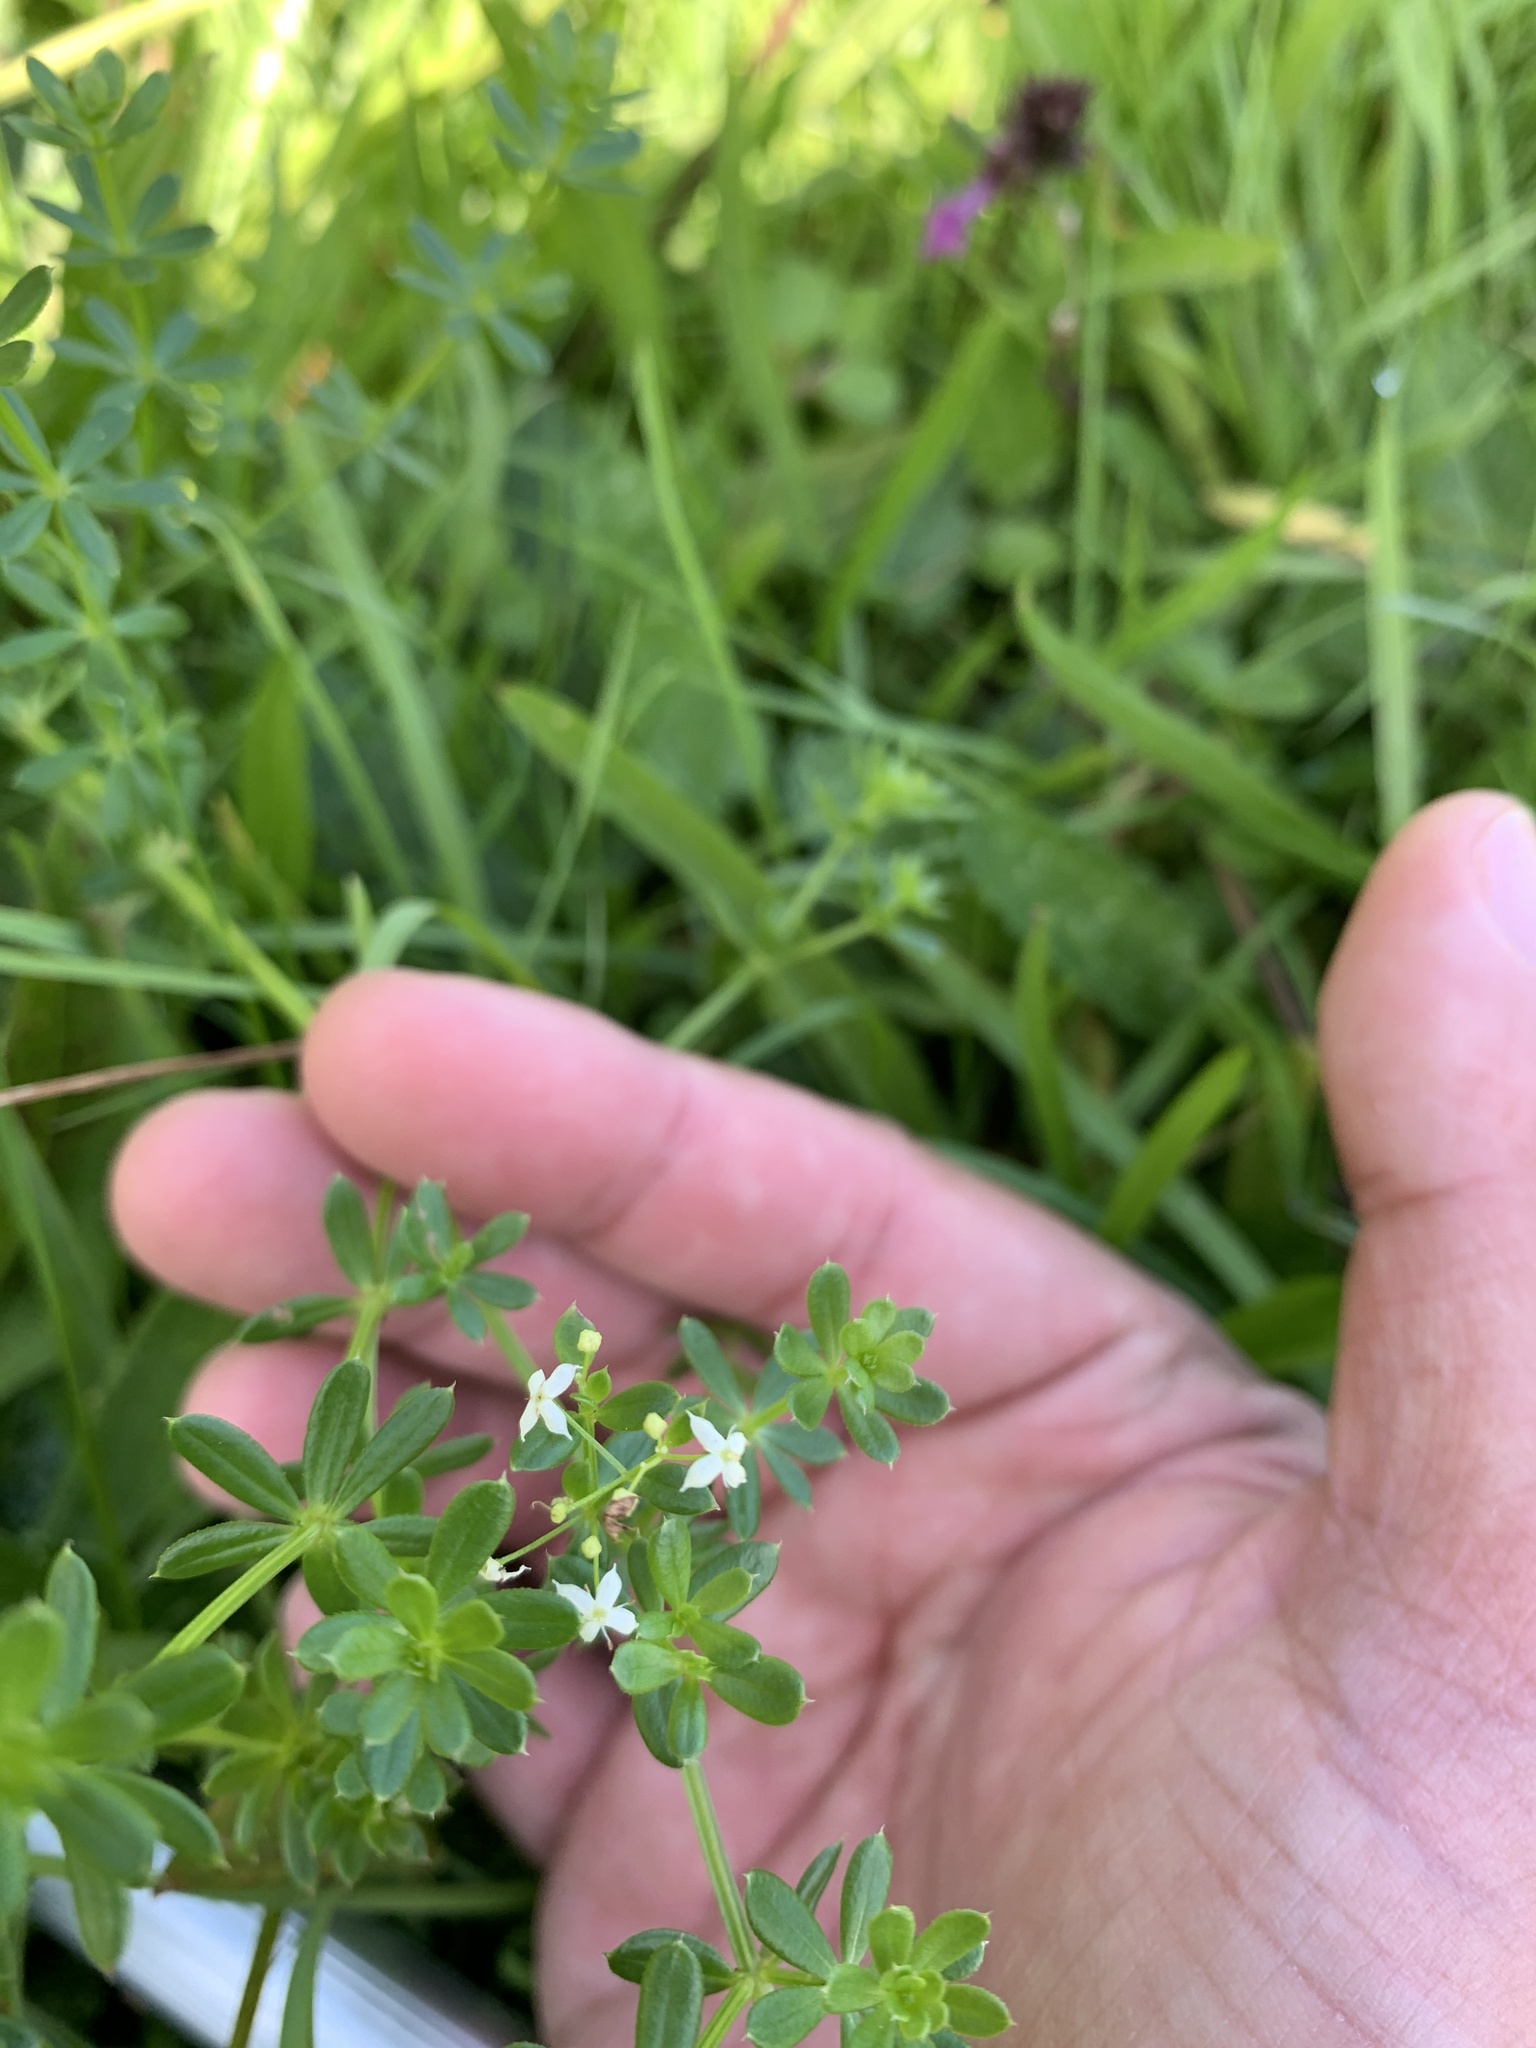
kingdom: Plantae
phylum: Tracheophyta
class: Magnoliopsida
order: Gentianales
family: Rubiaceae
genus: Galium
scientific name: Galium album
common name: White bedstraw
